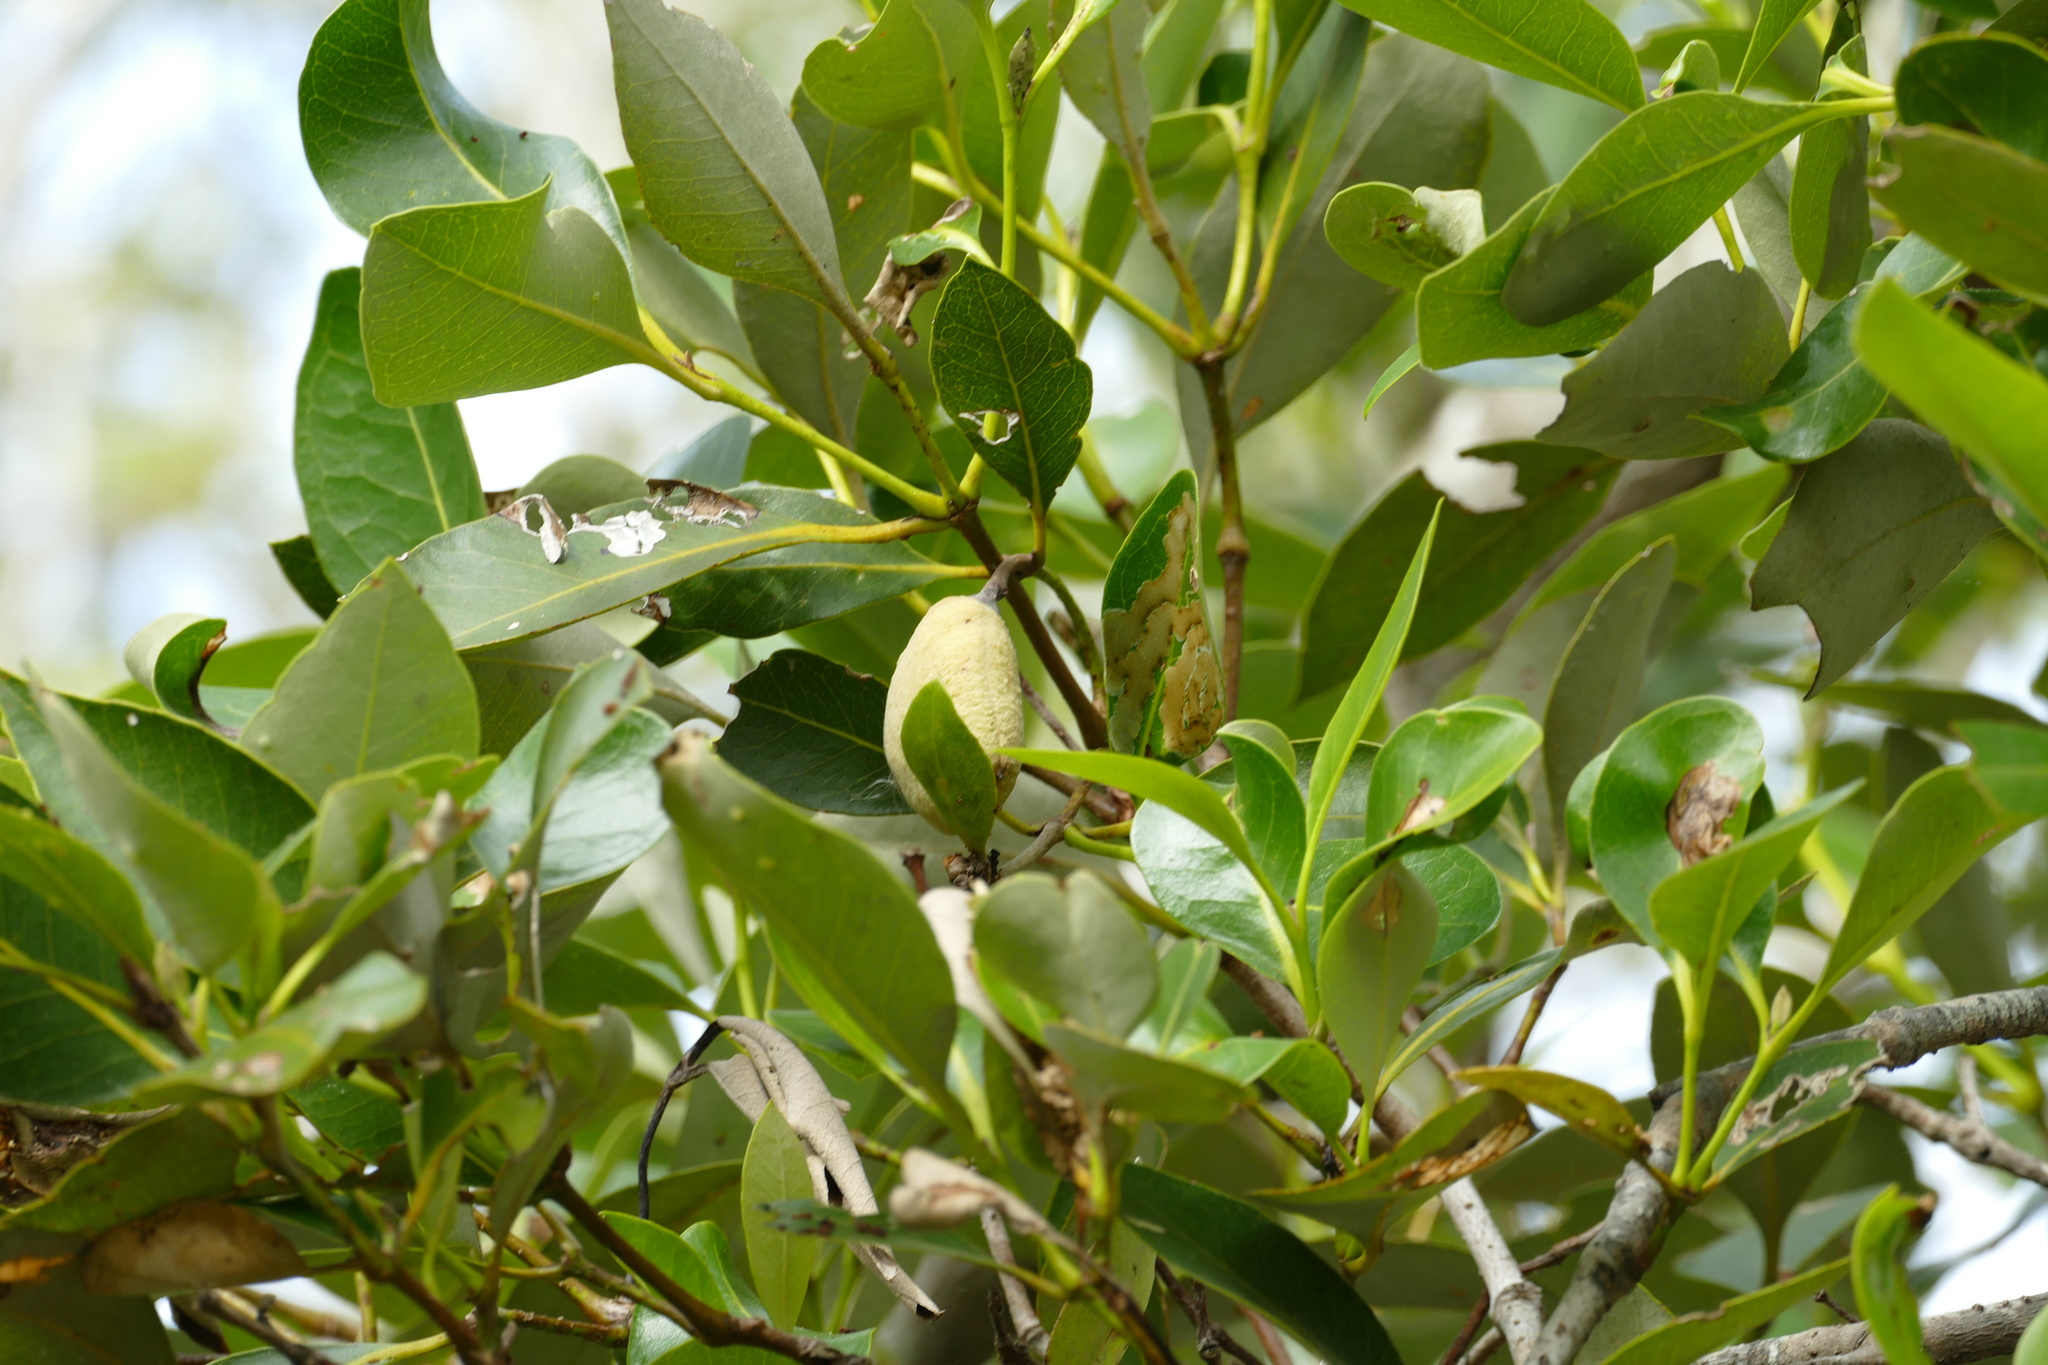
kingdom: Plantae
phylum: Tracheophyta
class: Magnoliopsida
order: Lamiales
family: Acanthaceae
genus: Avicennia
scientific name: Avicennia marina
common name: Gray mangrove
